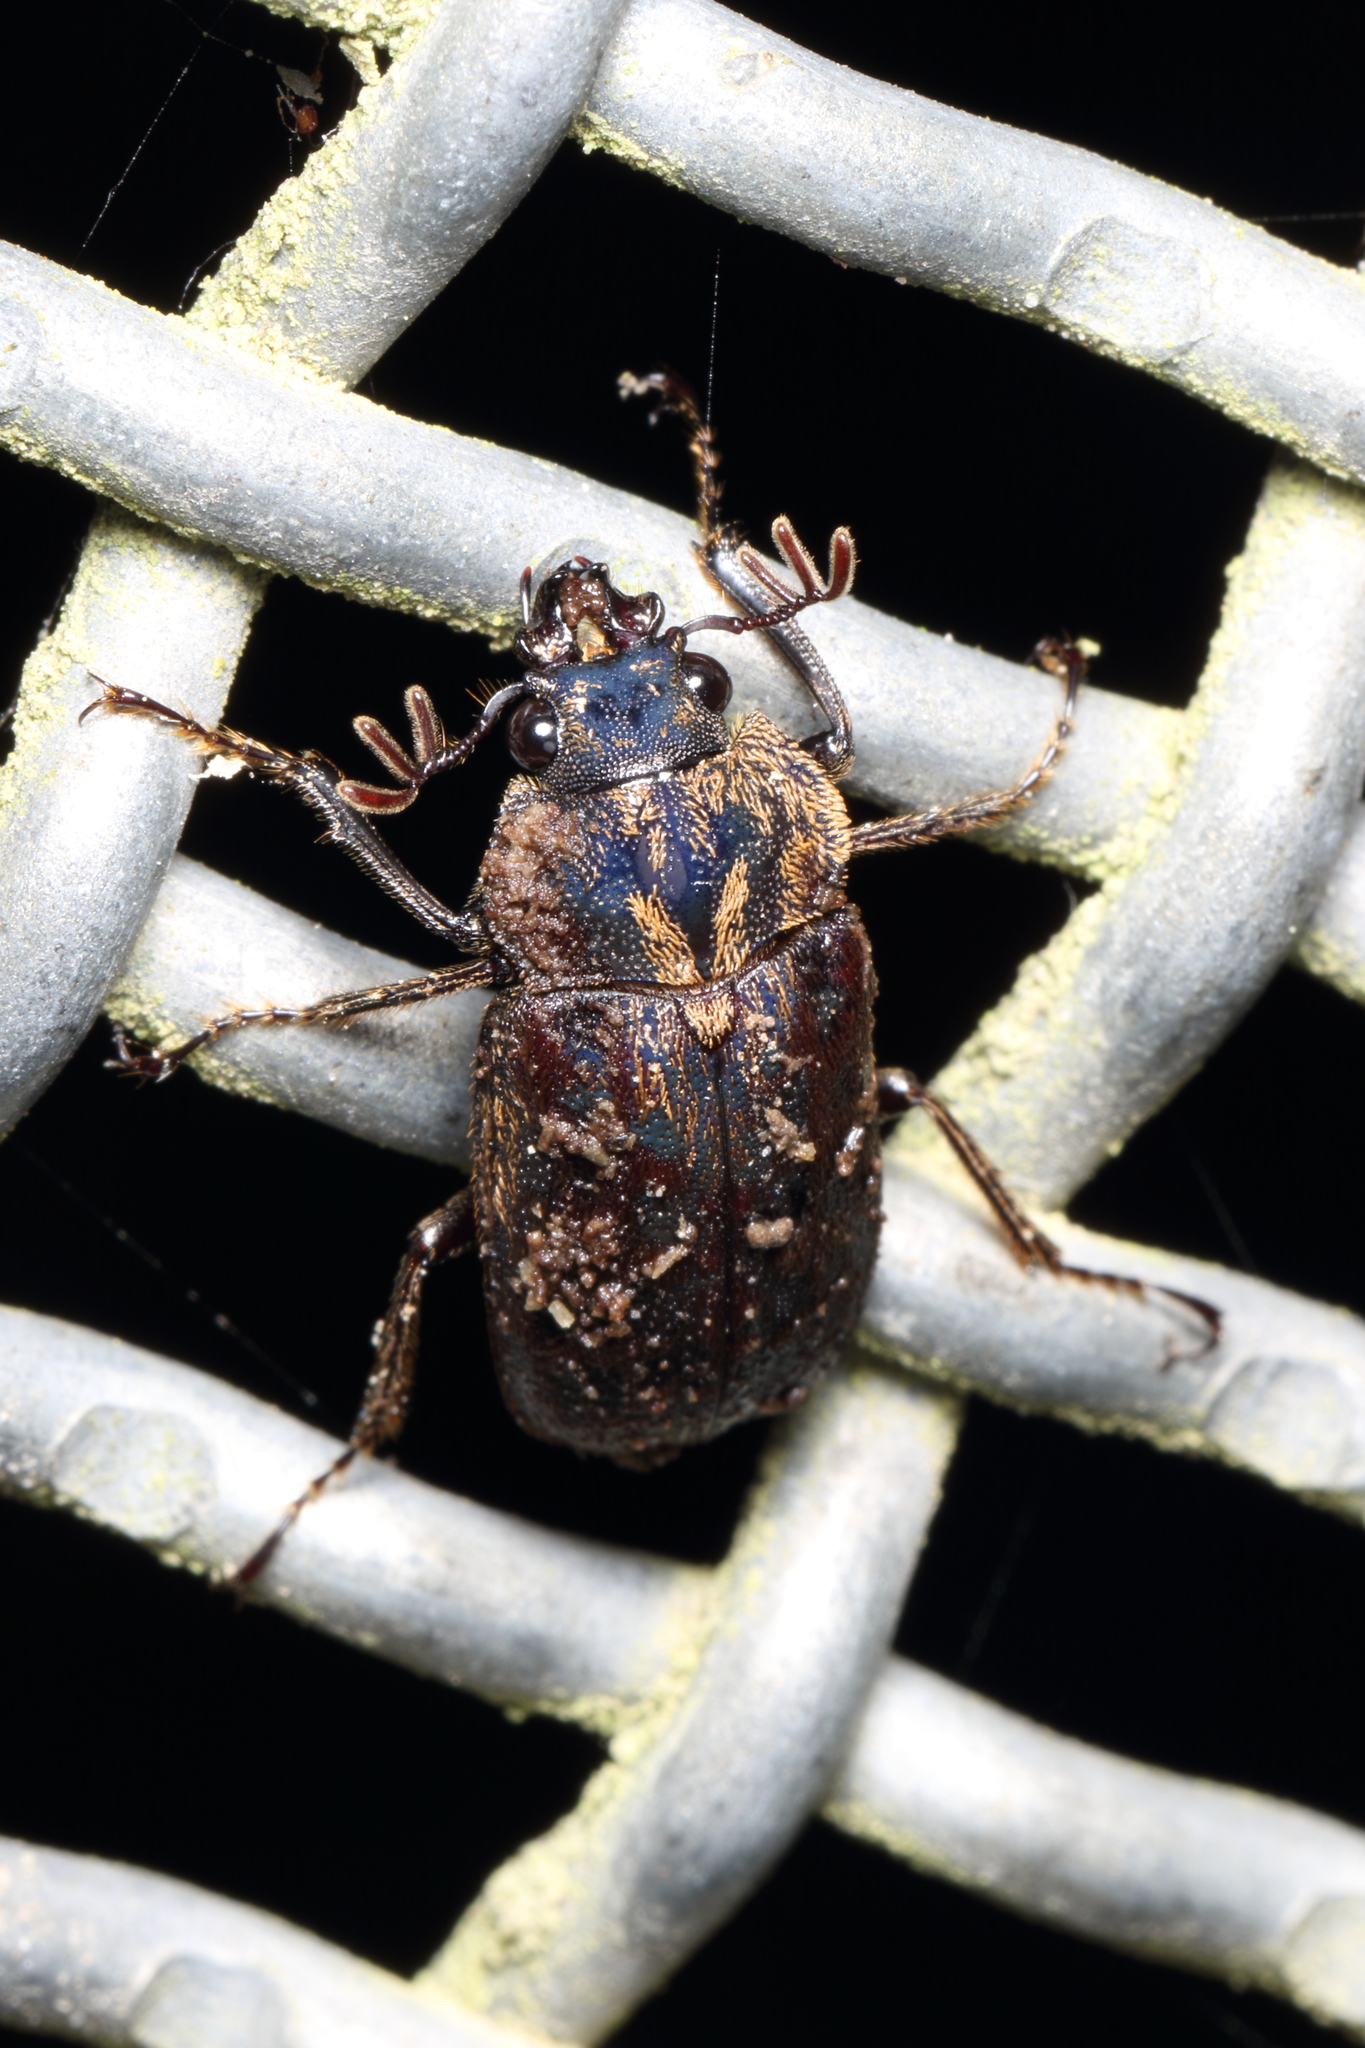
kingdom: Animalia
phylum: Arthropoda
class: Insecta
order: Coleoptera
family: Lucanidae
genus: Mitophyllus
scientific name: Mitophyllus parrianus
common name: Parry's stag beetle
